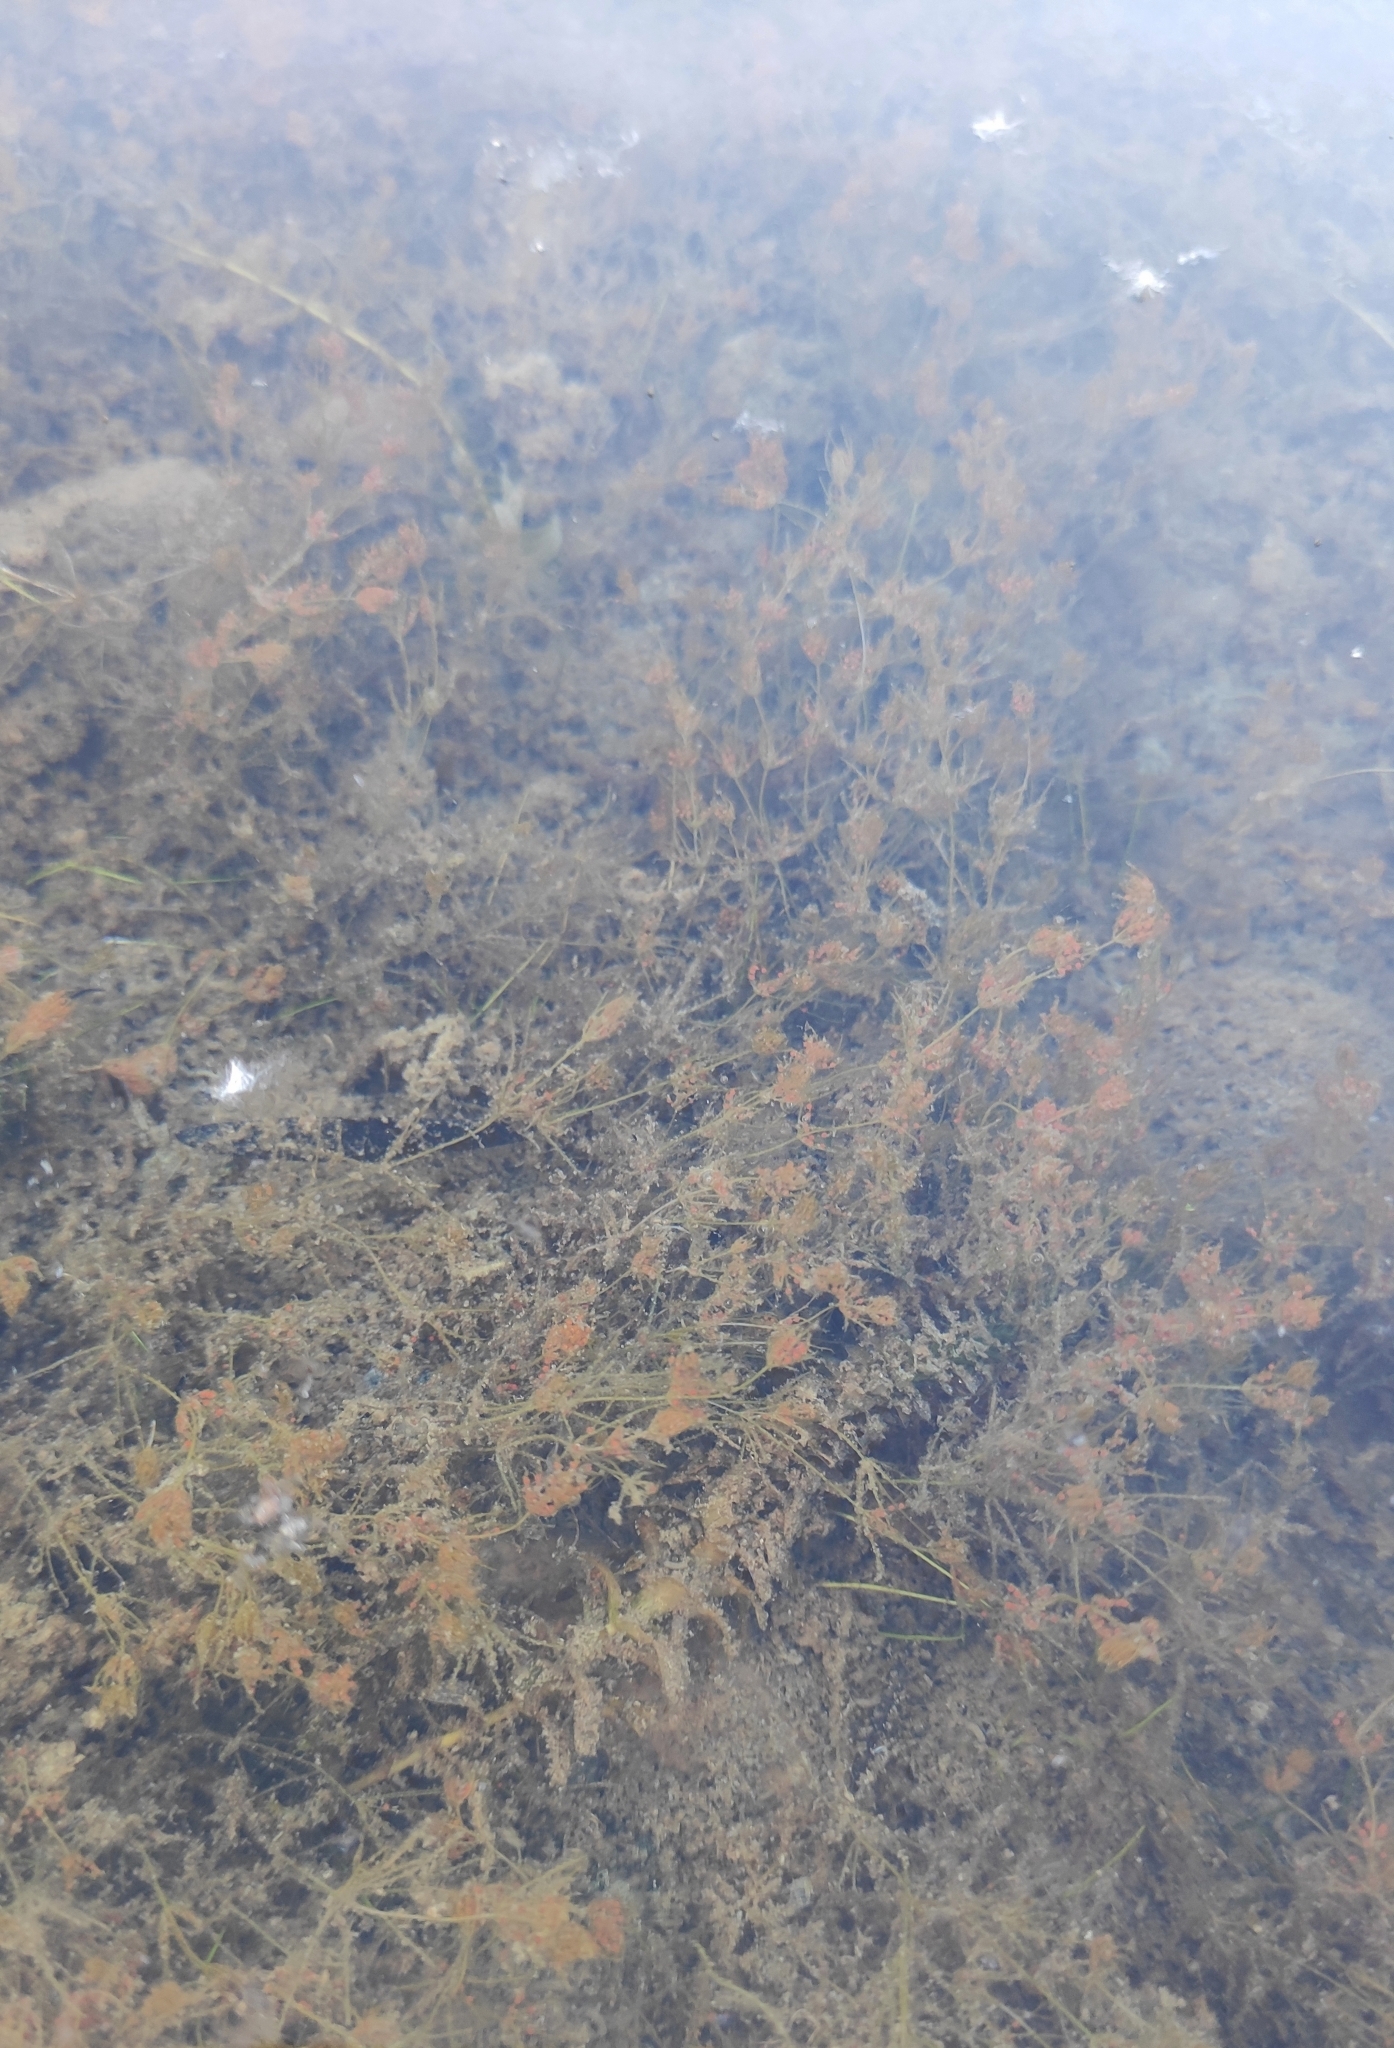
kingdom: Plantae
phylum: Charophyta
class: Charophyceae
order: Charales
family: Characeae
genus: Chara
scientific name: Chara aspera
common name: Rough stonewort
